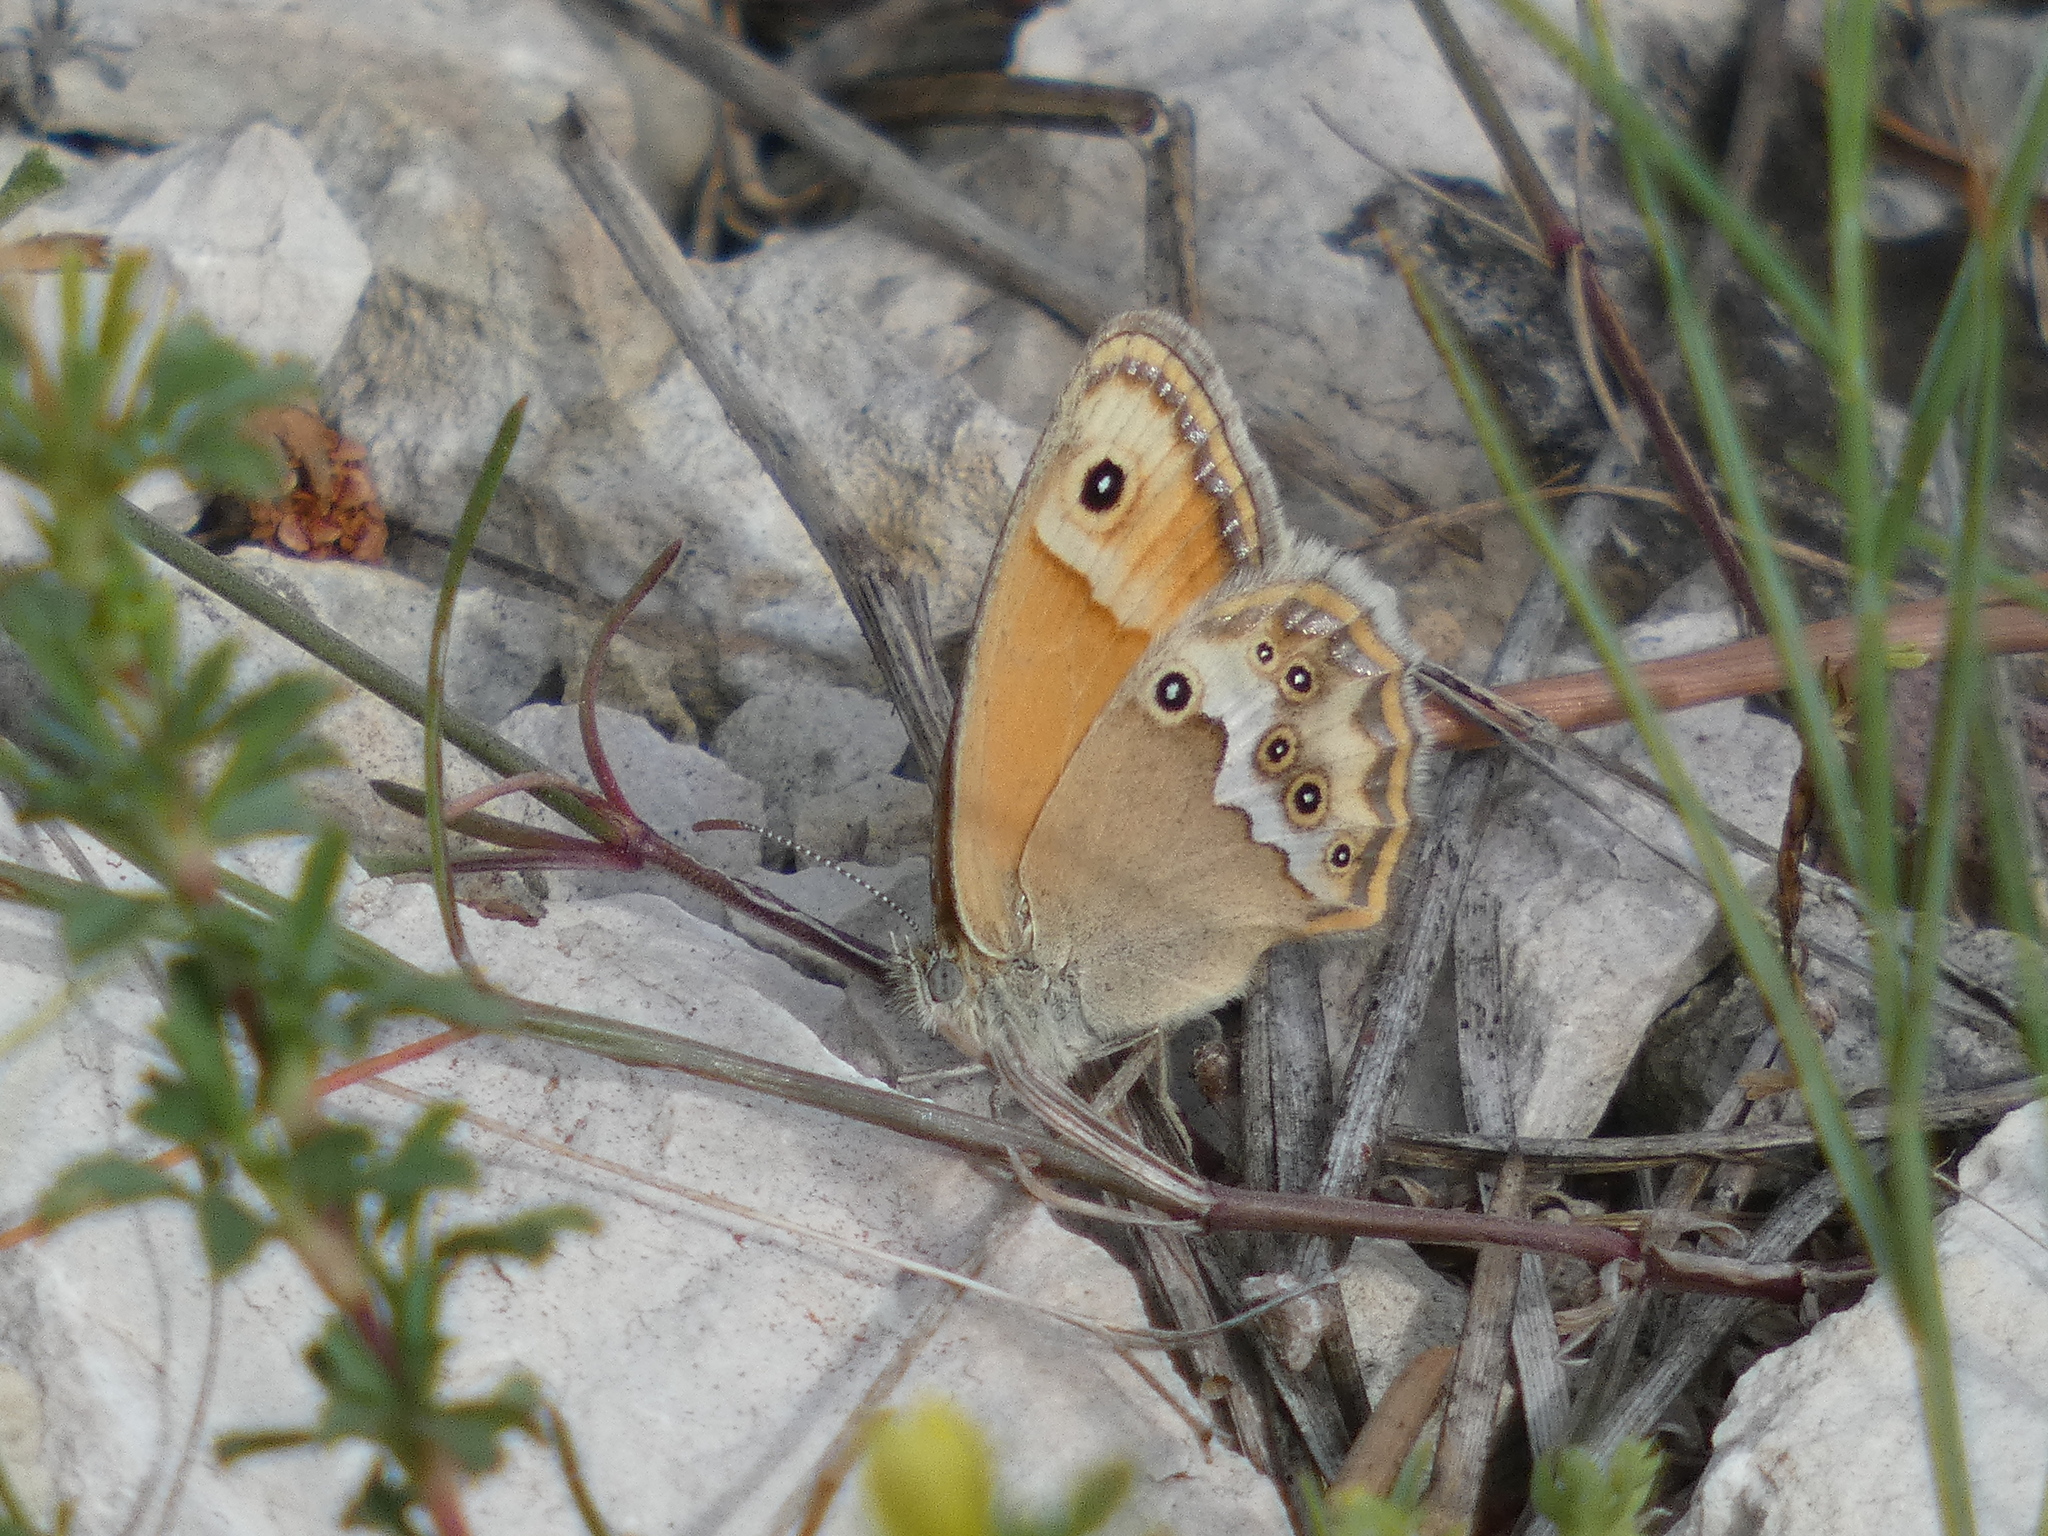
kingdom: Animalia
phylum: Arthropoda
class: Insecta
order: Lepidoptera
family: Nymphalidae
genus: Coenonympha
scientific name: Coenonympha dorus
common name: Dusky heath
